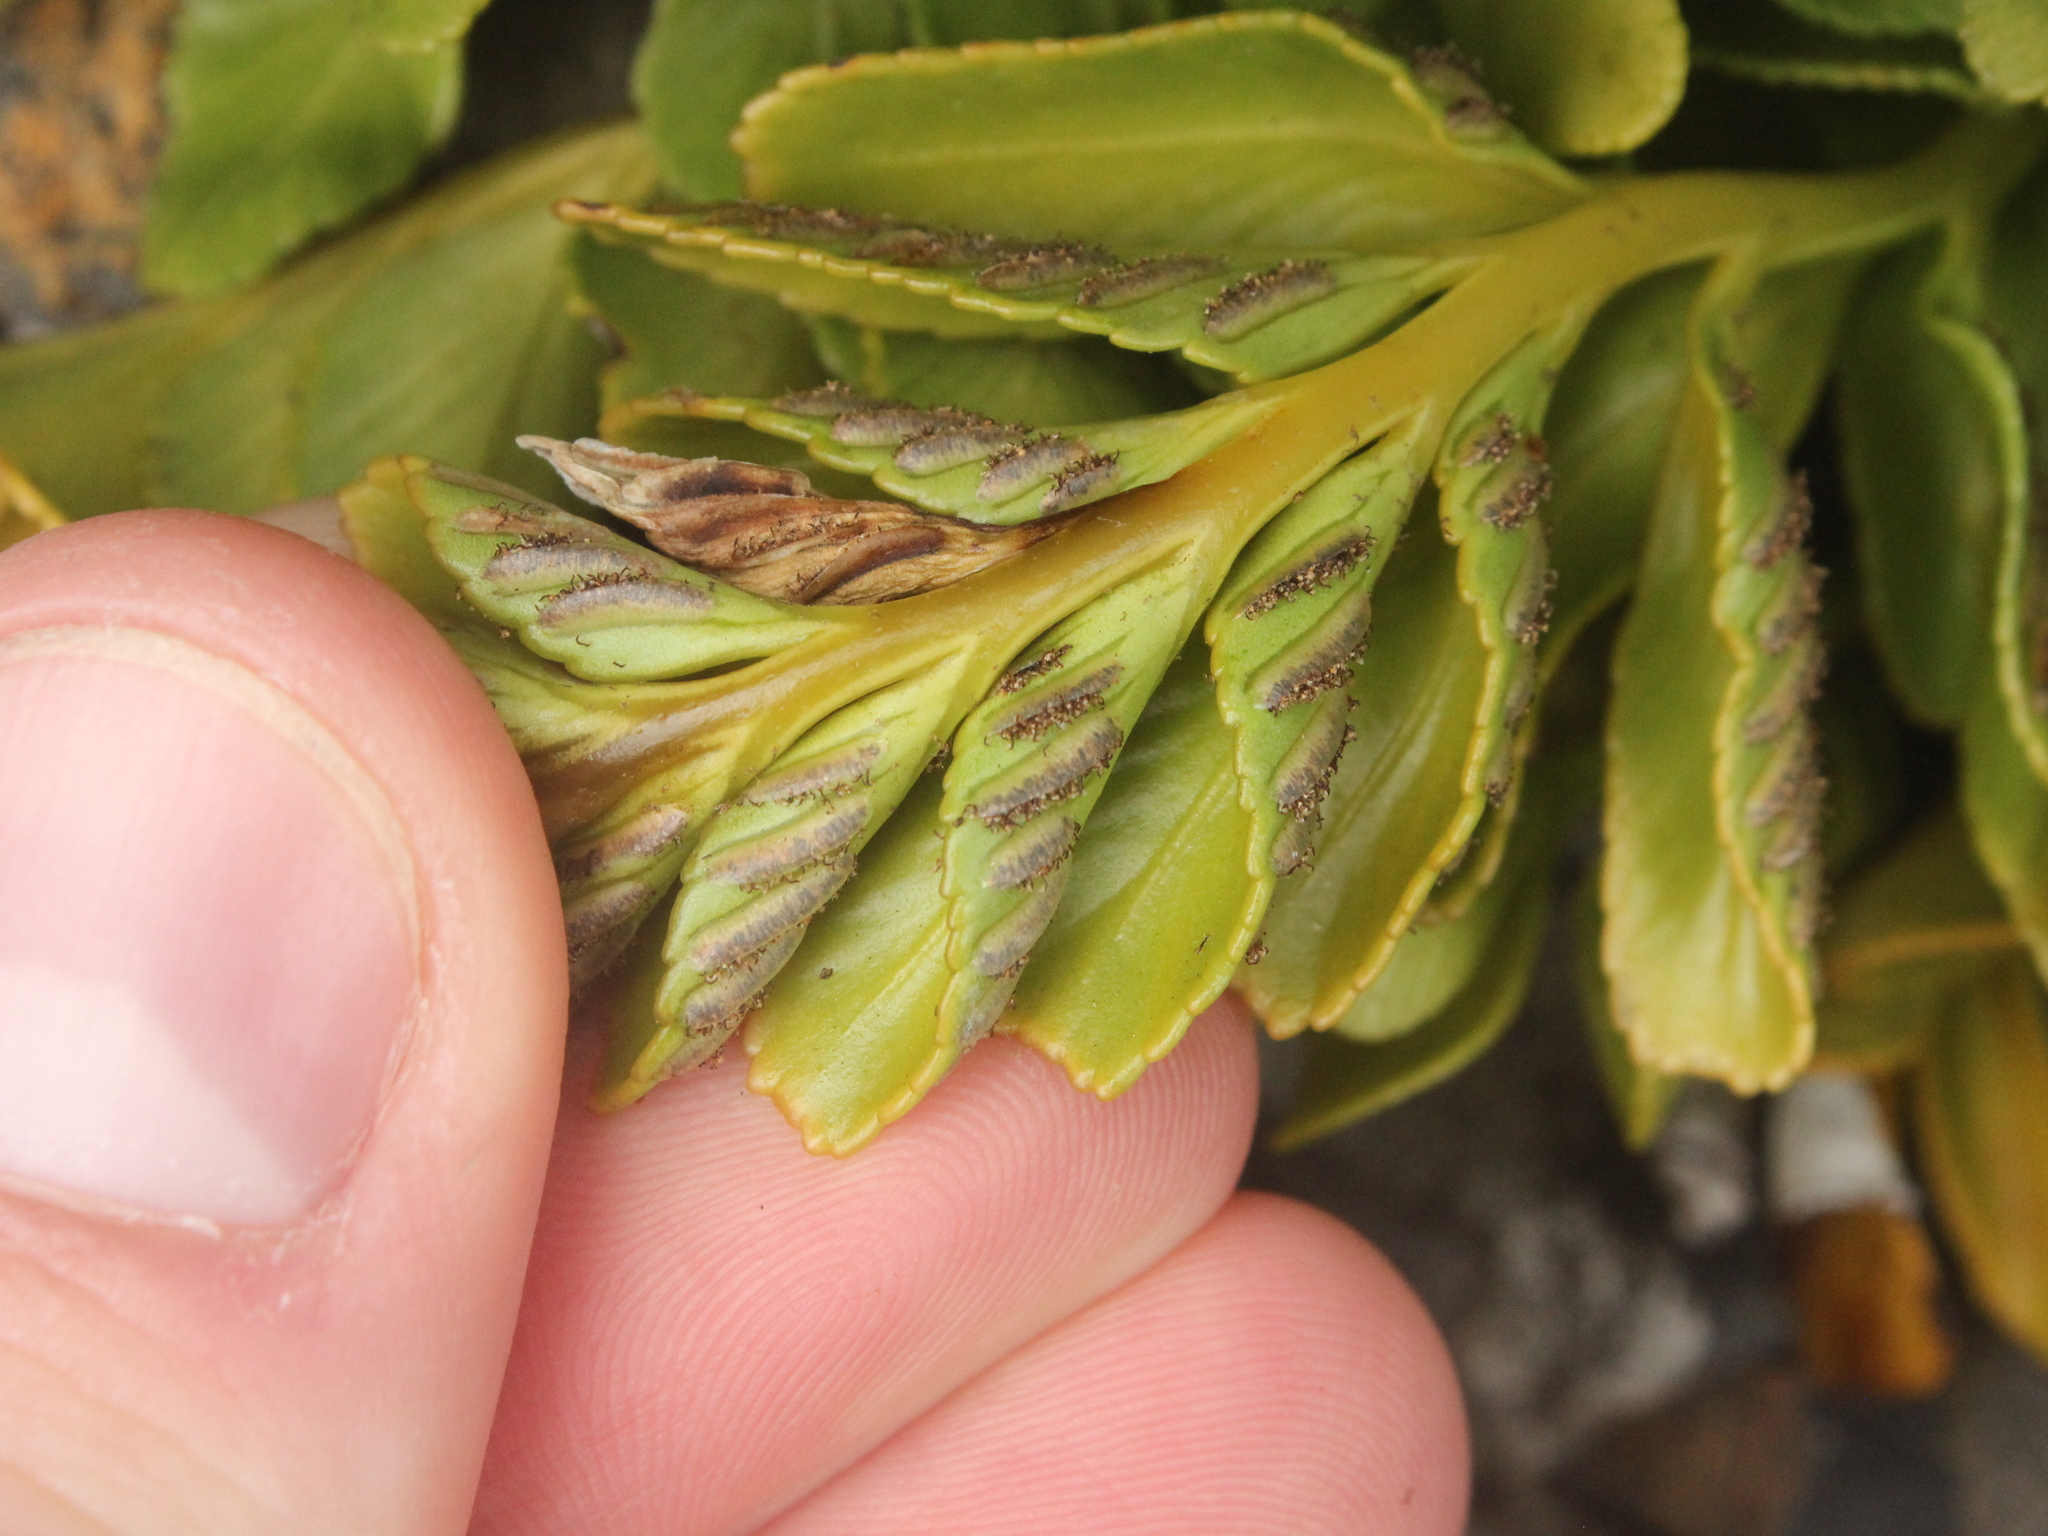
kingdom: Plantae
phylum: Tracheophyta
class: Polypodiopsida
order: Polypodiales
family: Aspleniaceae
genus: Asplenium
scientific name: Asplenium obtusatum
